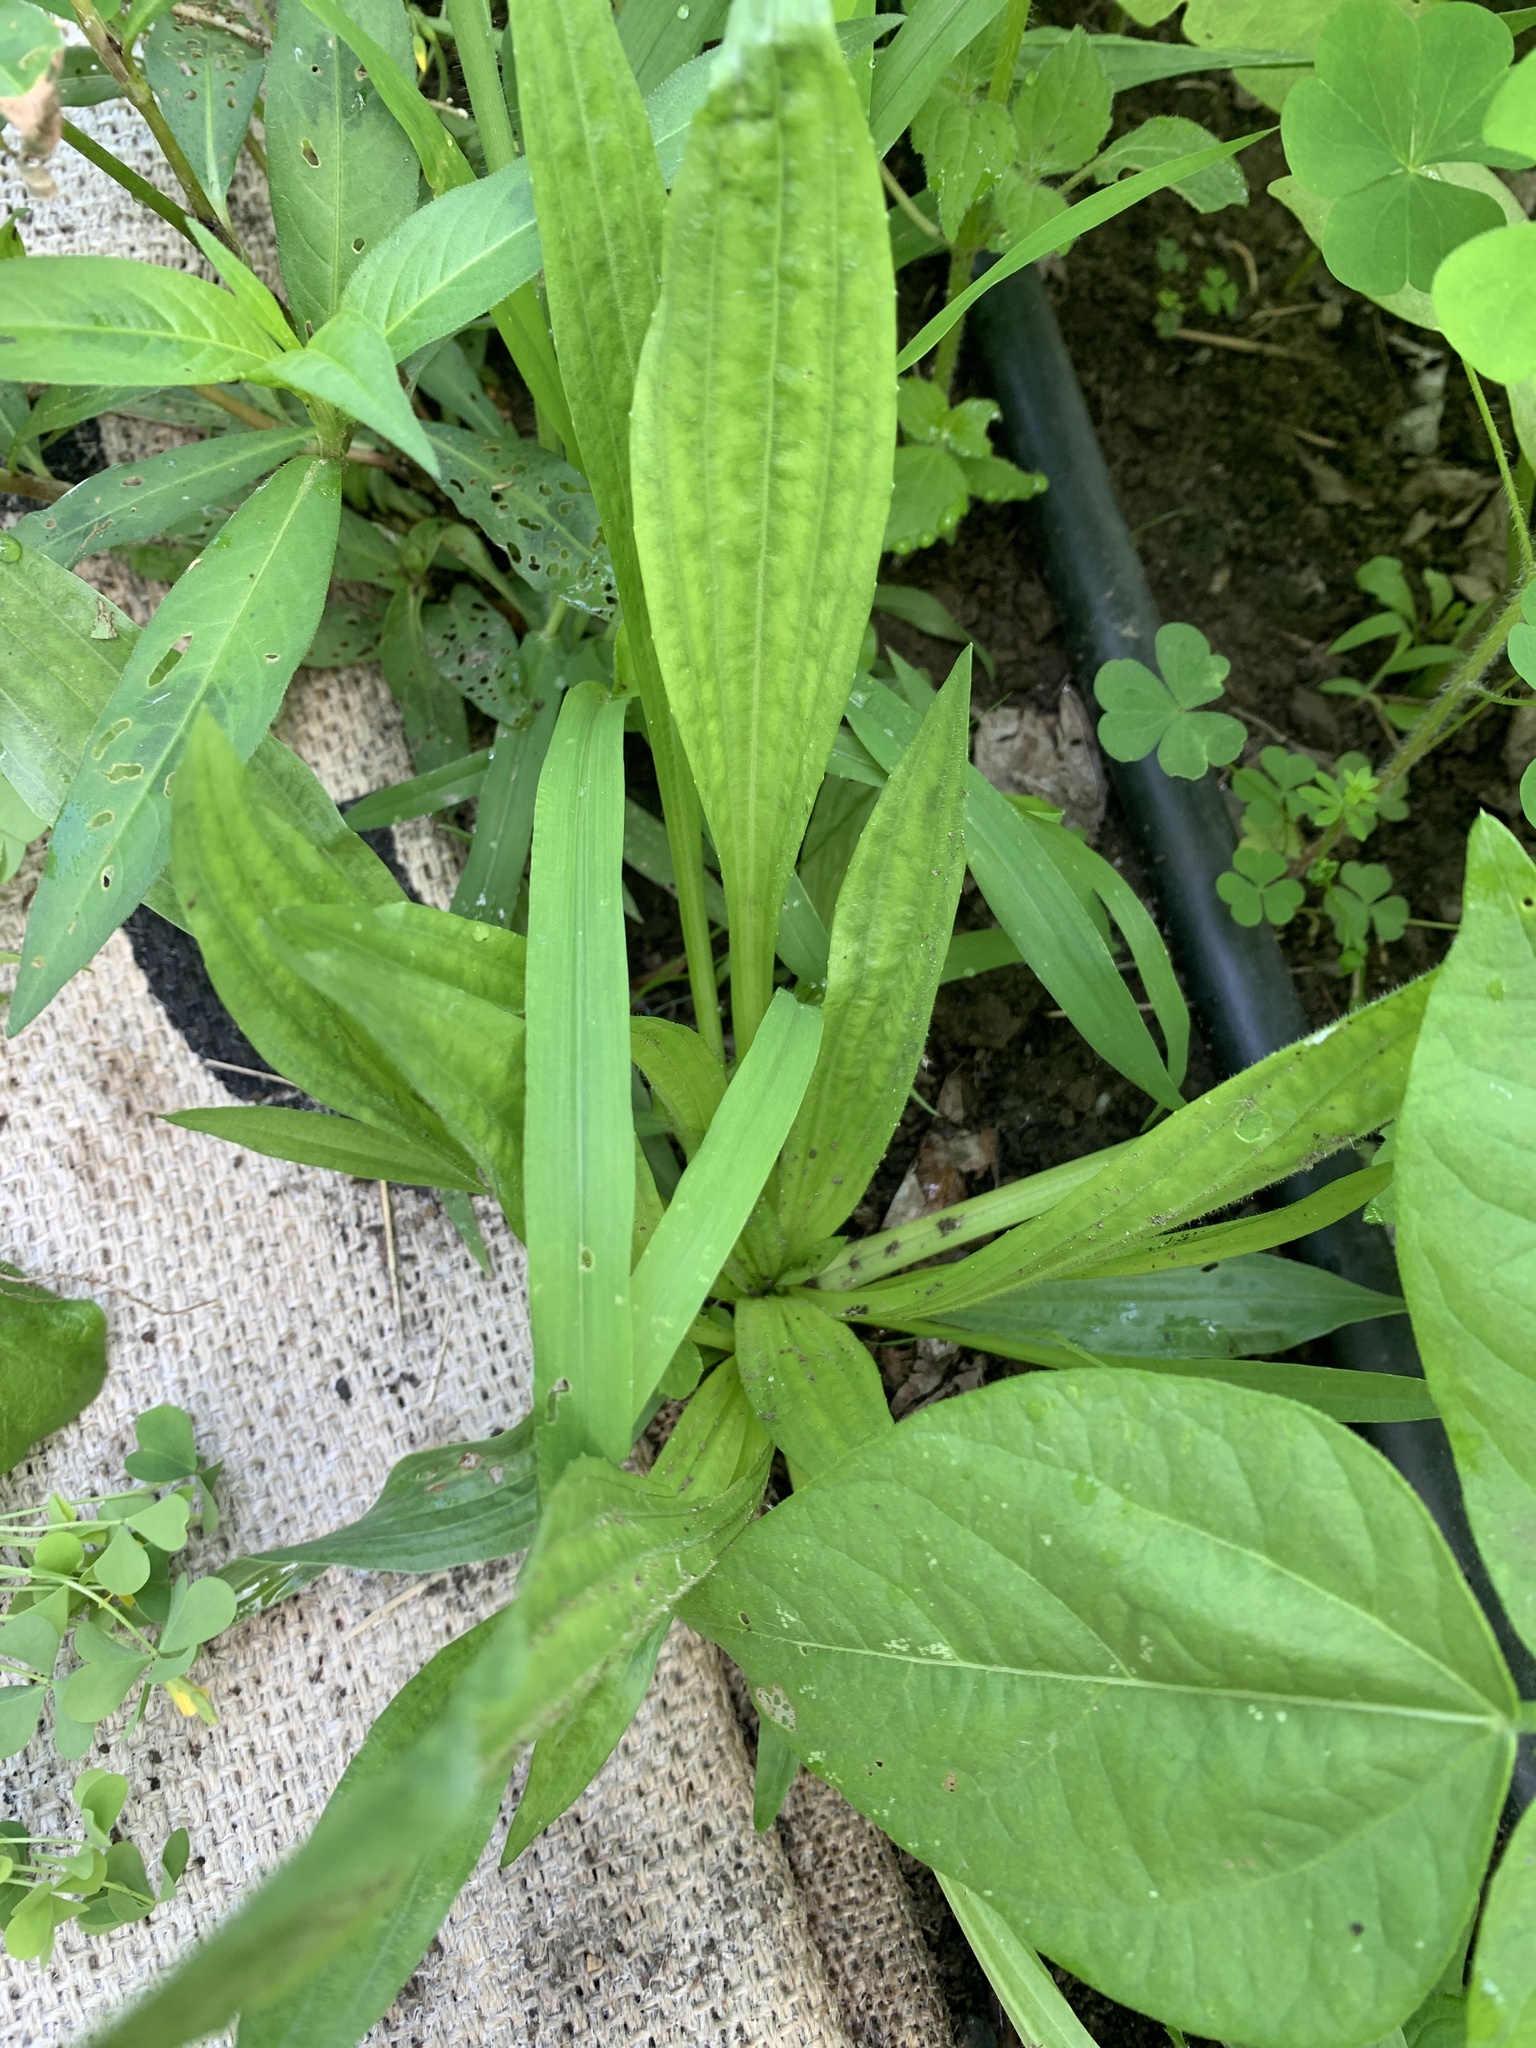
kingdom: Plantae
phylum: Tracheophyta
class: Magnoliopsida
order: Lamiales
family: Plantaginaceae
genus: Plantago
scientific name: Plantago lanceolata
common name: Ribwort plantain
